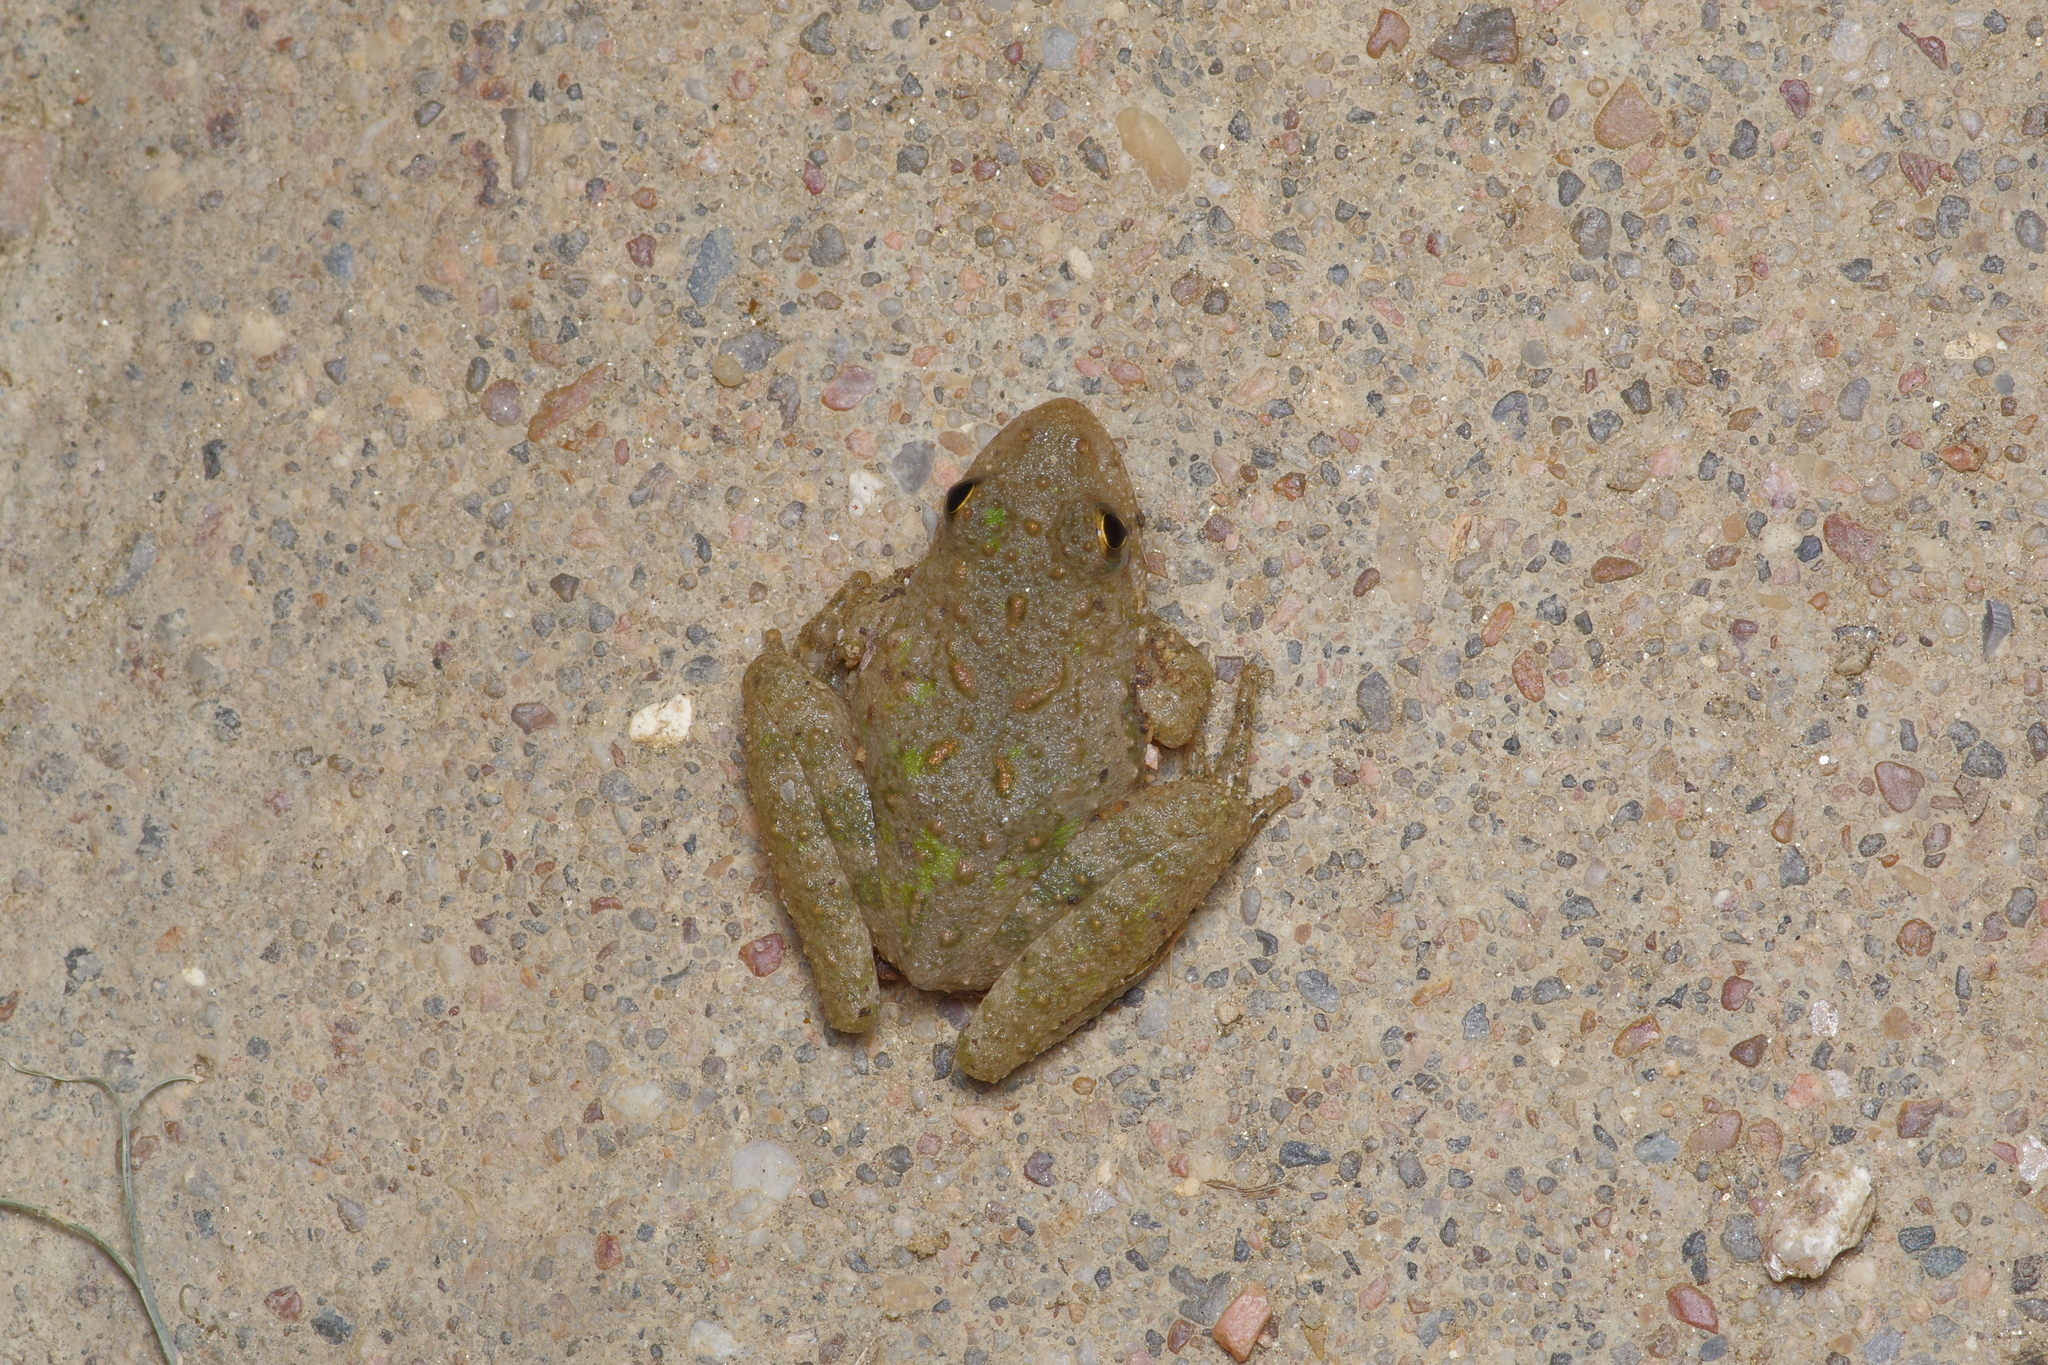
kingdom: Animalia
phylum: Chordata
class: Amphibia
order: Anura
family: Hylidae
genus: Acris
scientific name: Acris blanchardi
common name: Blanchard's cricket frog
